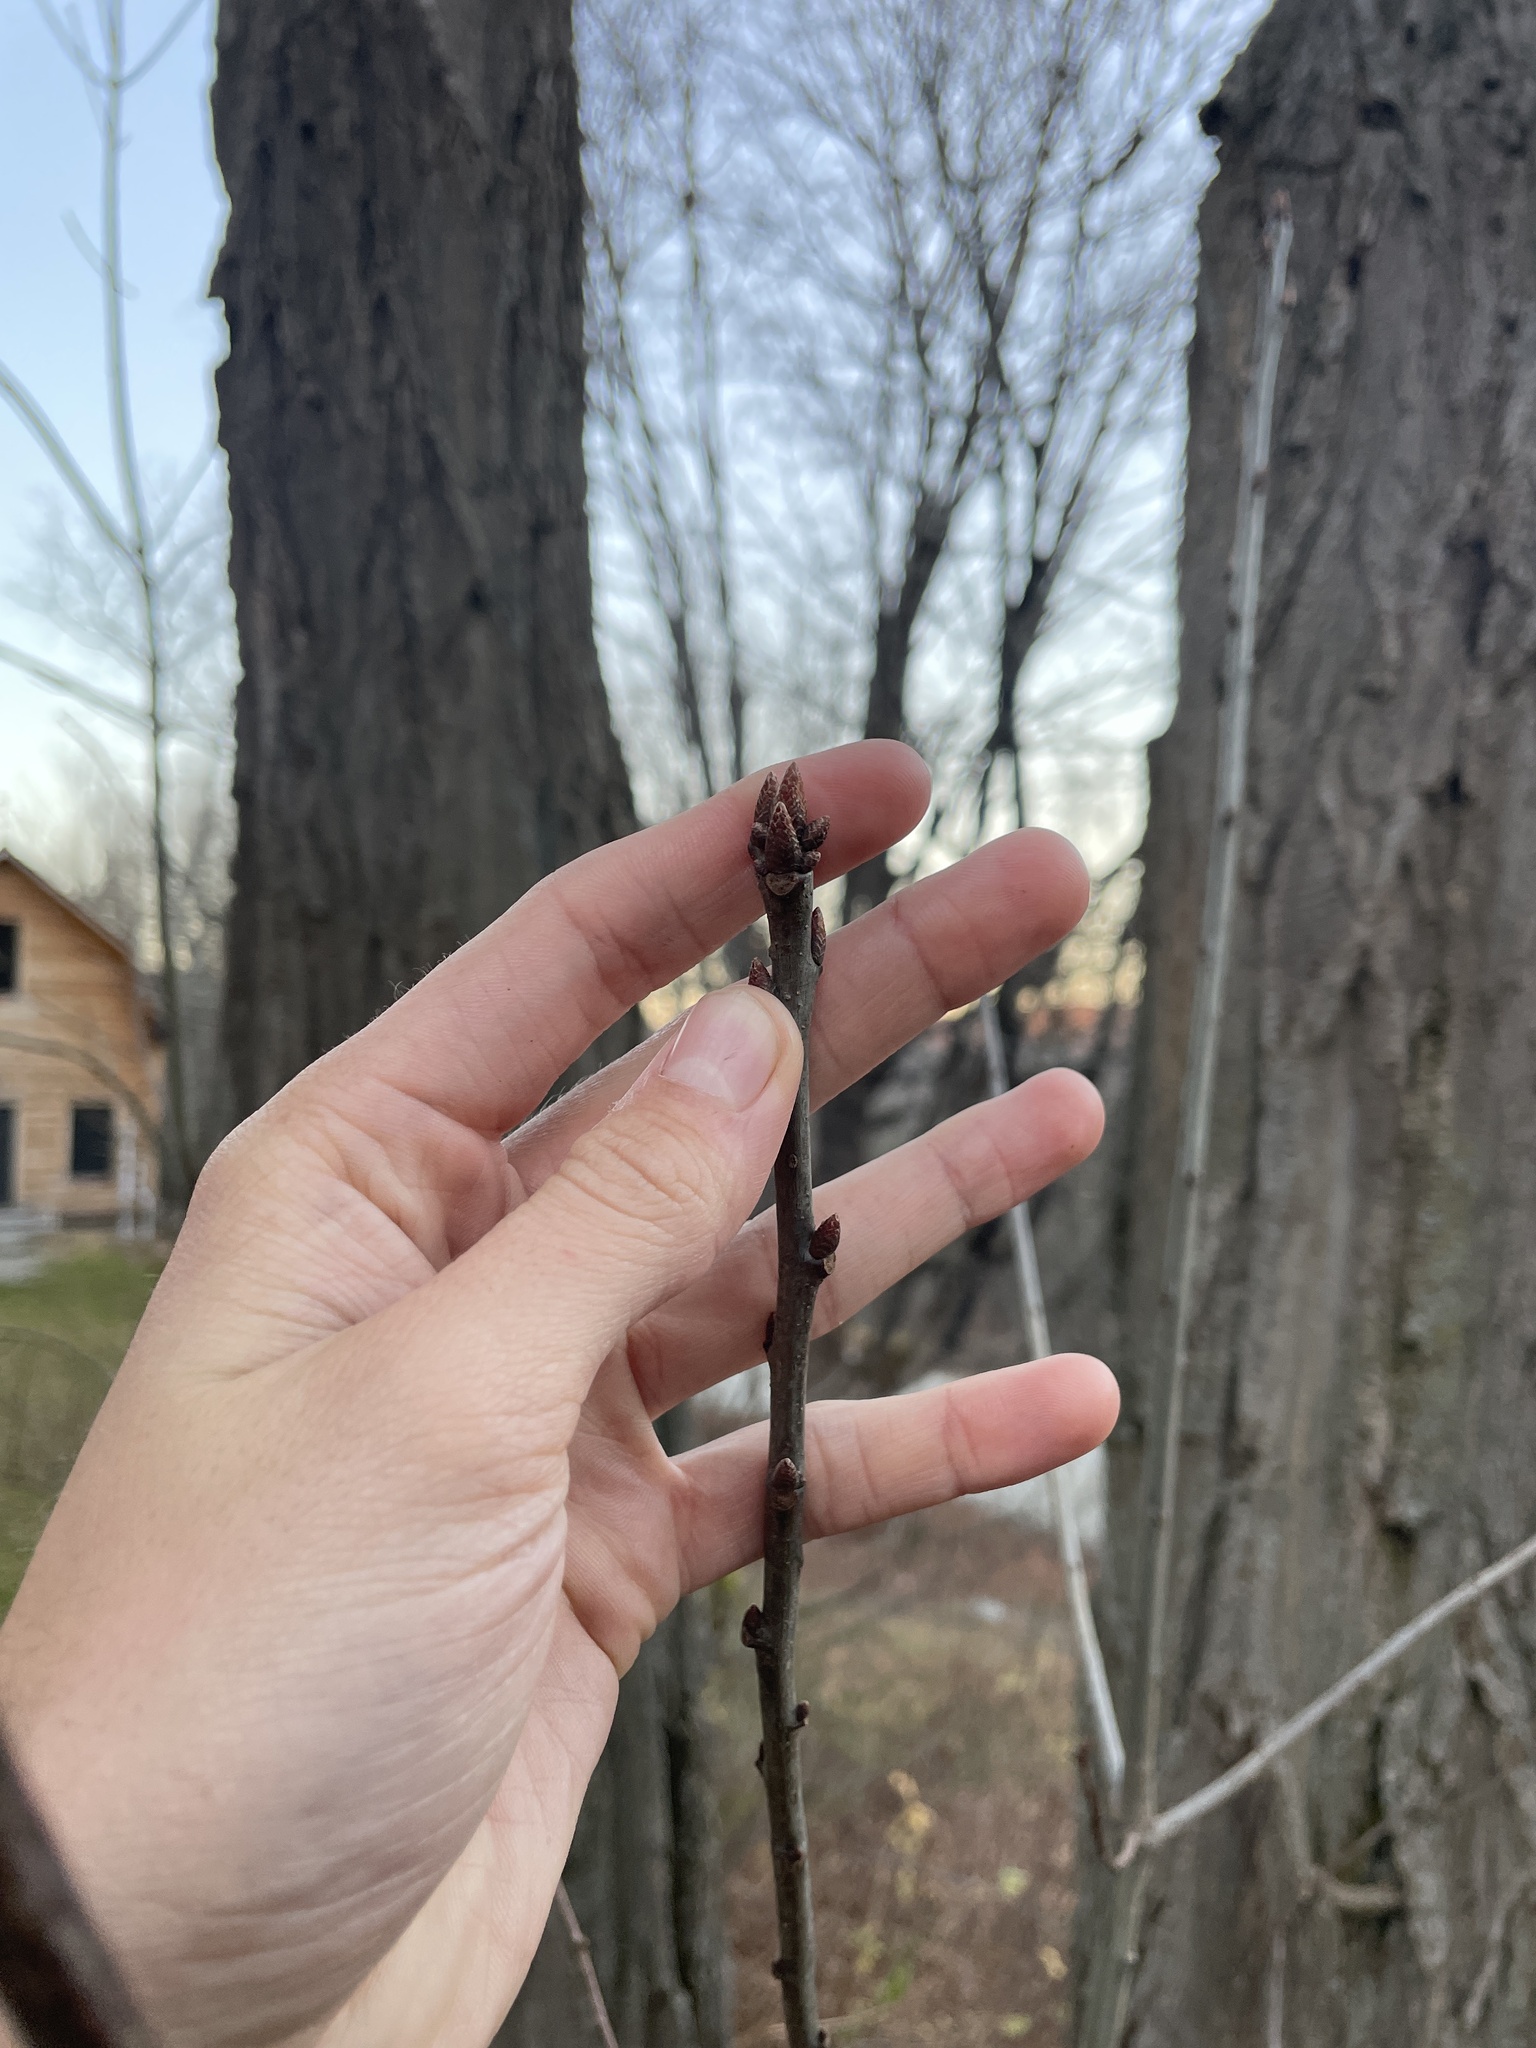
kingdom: Plantae
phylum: Tracheophyta
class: Magnoliopsida
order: Fagales
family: Fagaceae
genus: Quercus
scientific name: Quercus rubra
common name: Red oak
